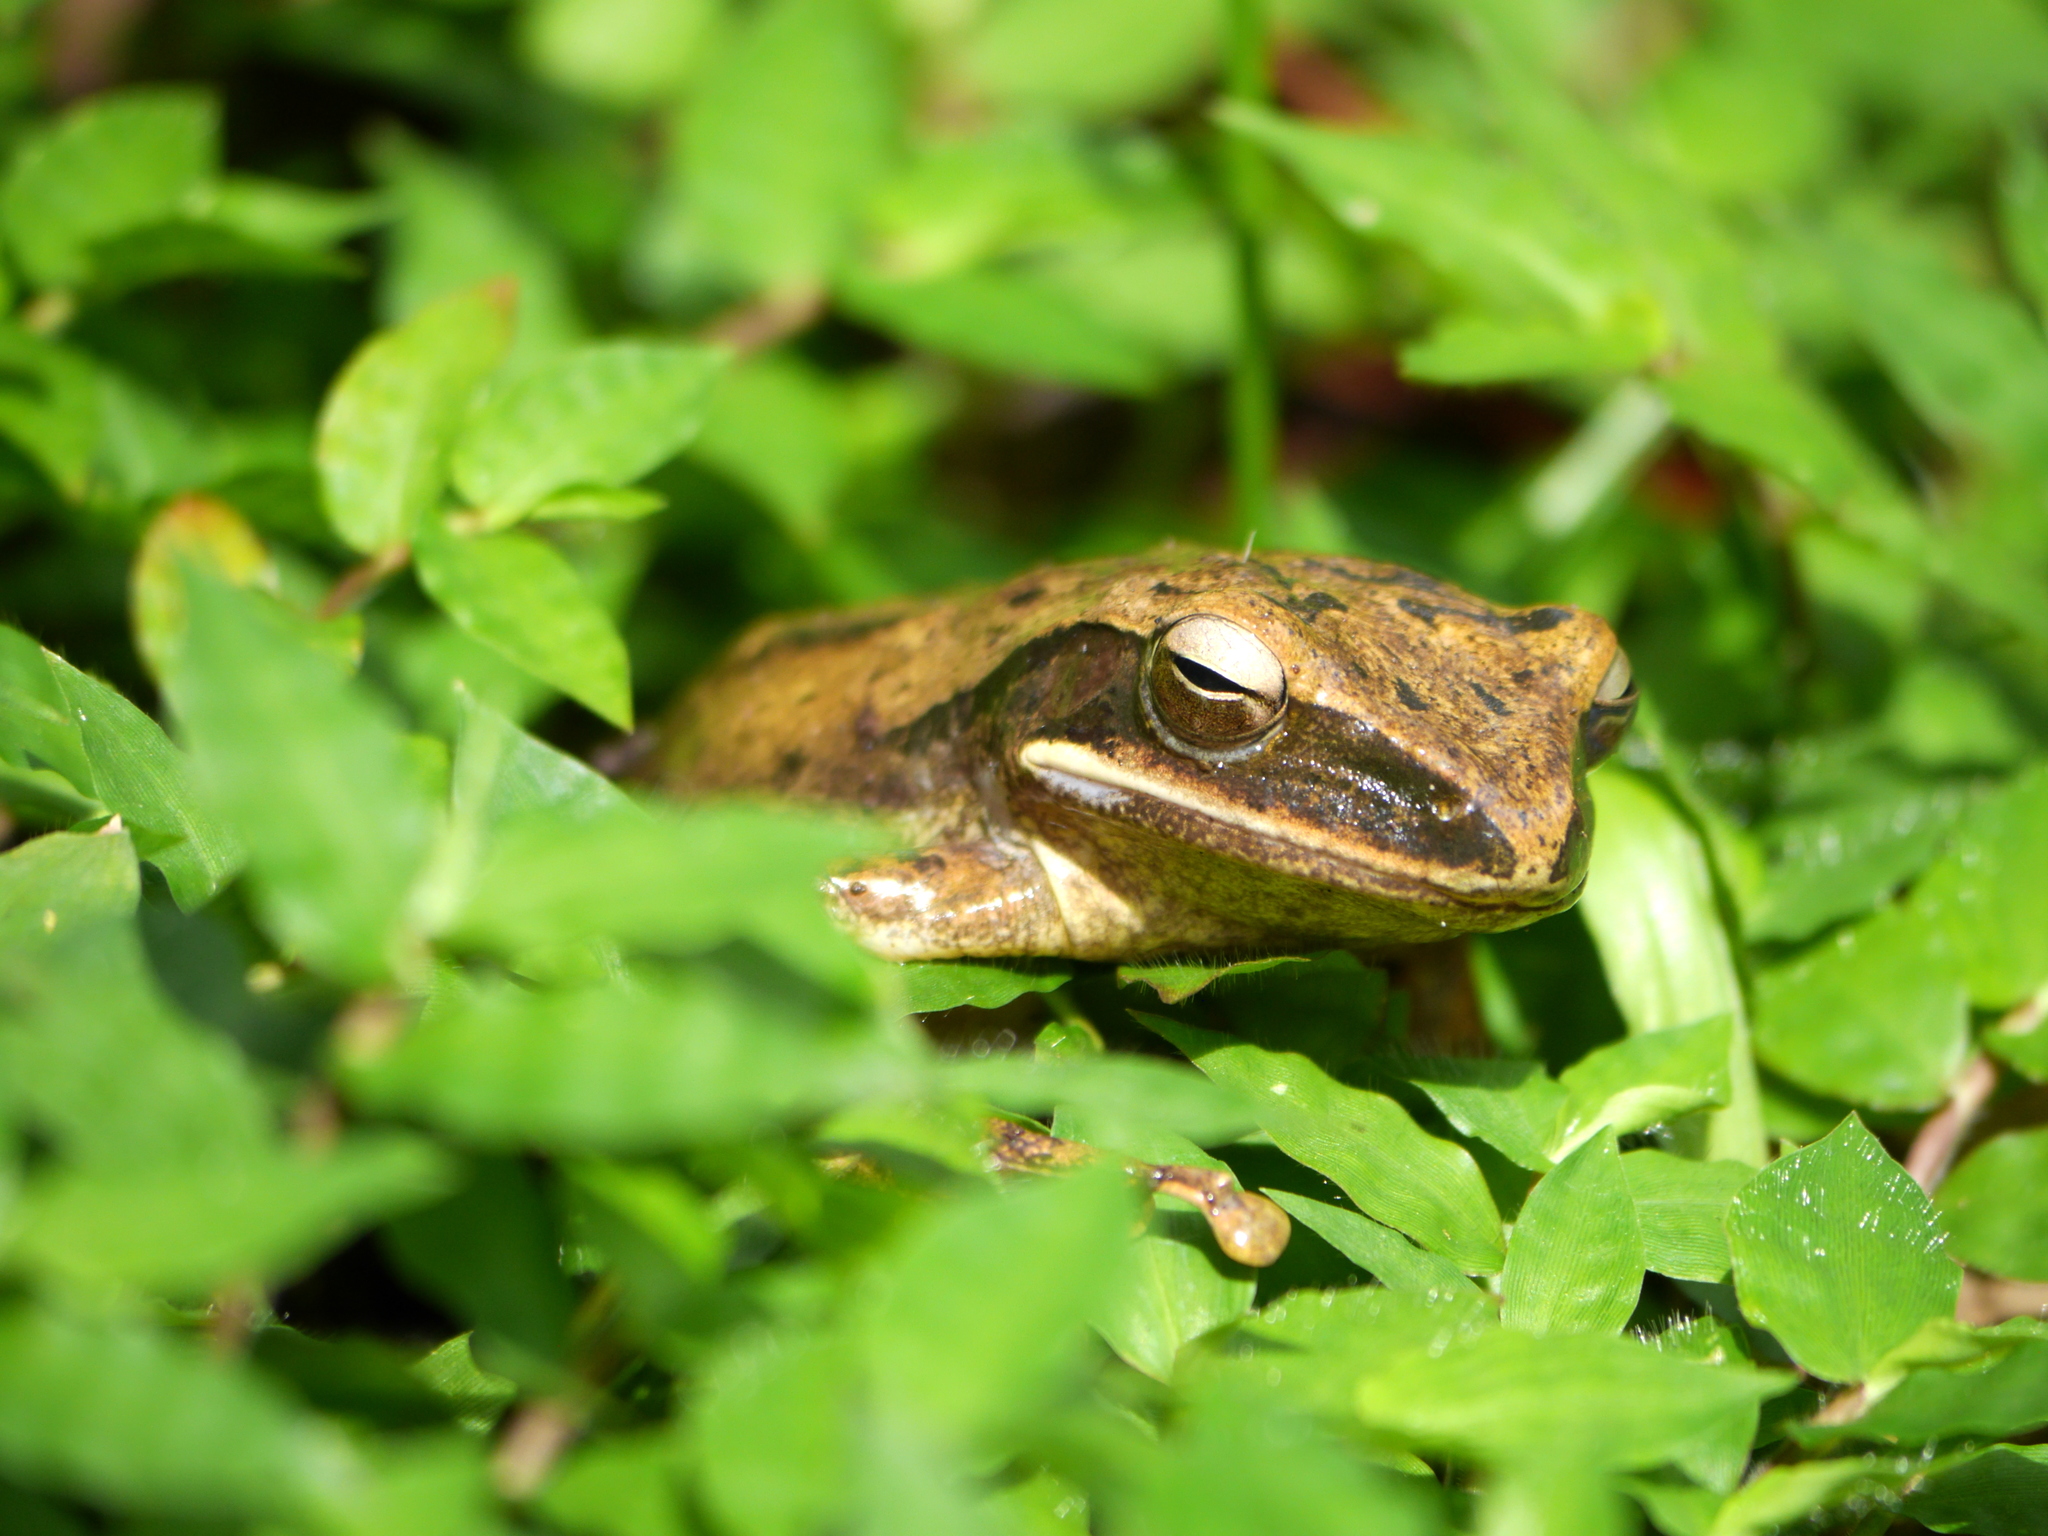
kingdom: Animalia
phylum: Chordata
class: Amphibia
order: Anura
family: Rhacophoridae
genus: Polypedates
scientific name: Polypedates leucomystax
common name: Common tree frog/four-lined tree frog
